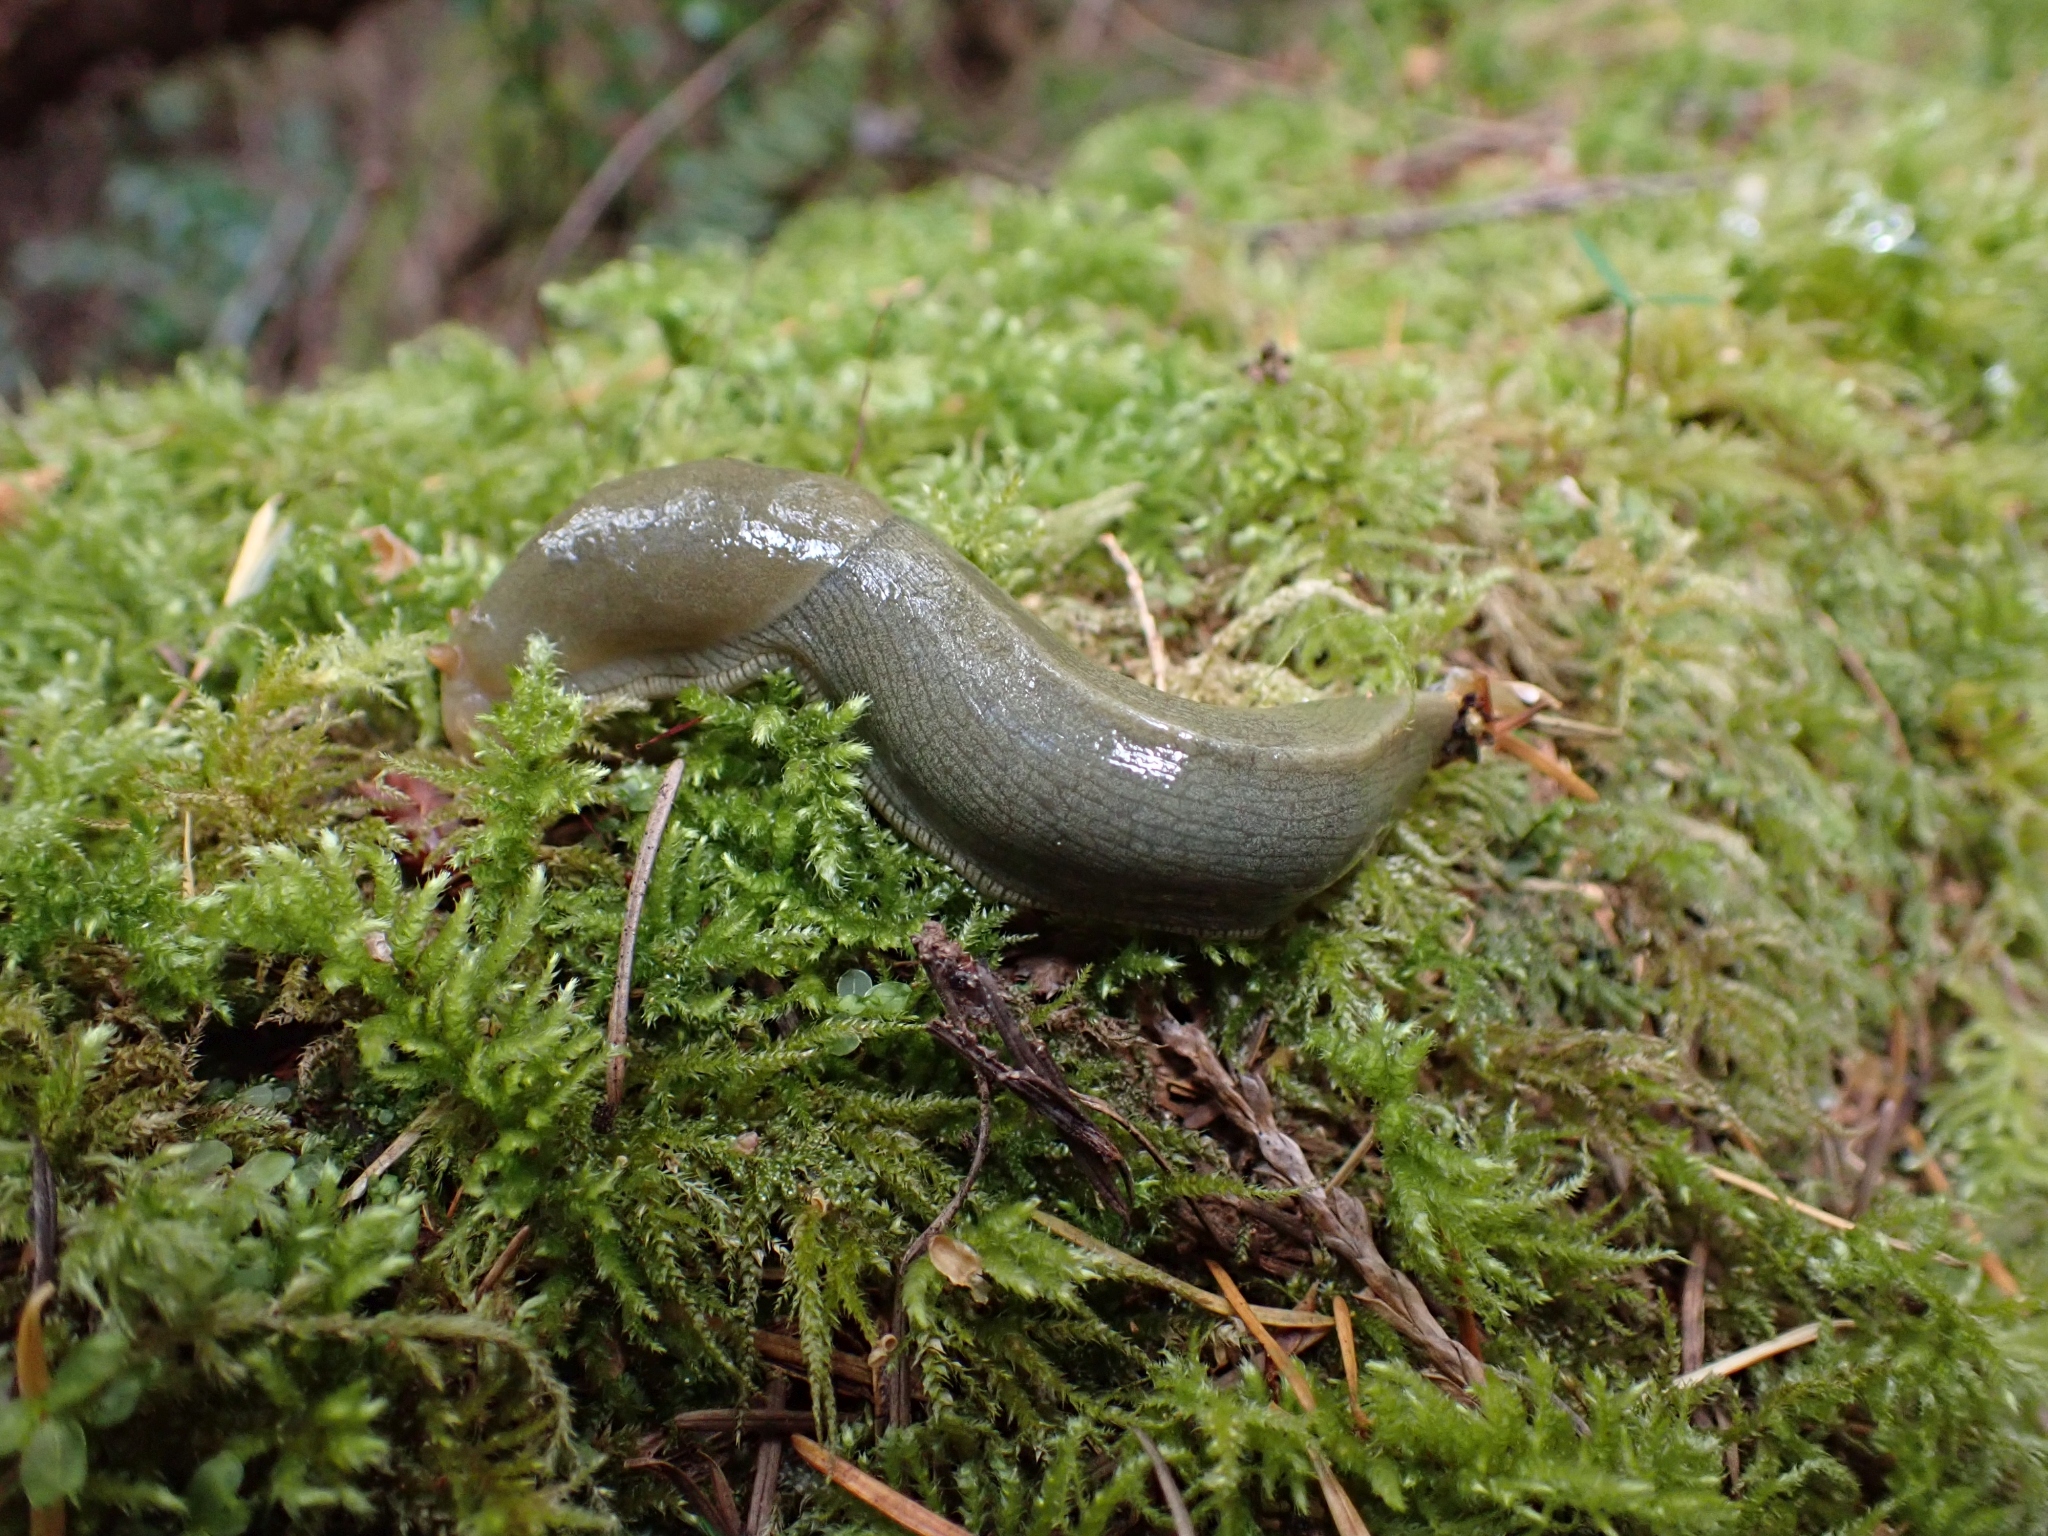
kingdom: Animalia
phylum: Mollusca
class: Gastropoda
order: Stylommatophora
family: Ariolimacidae
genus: Ariolimax
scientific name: Ariolimax columbianus
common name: Pacific banana slug
